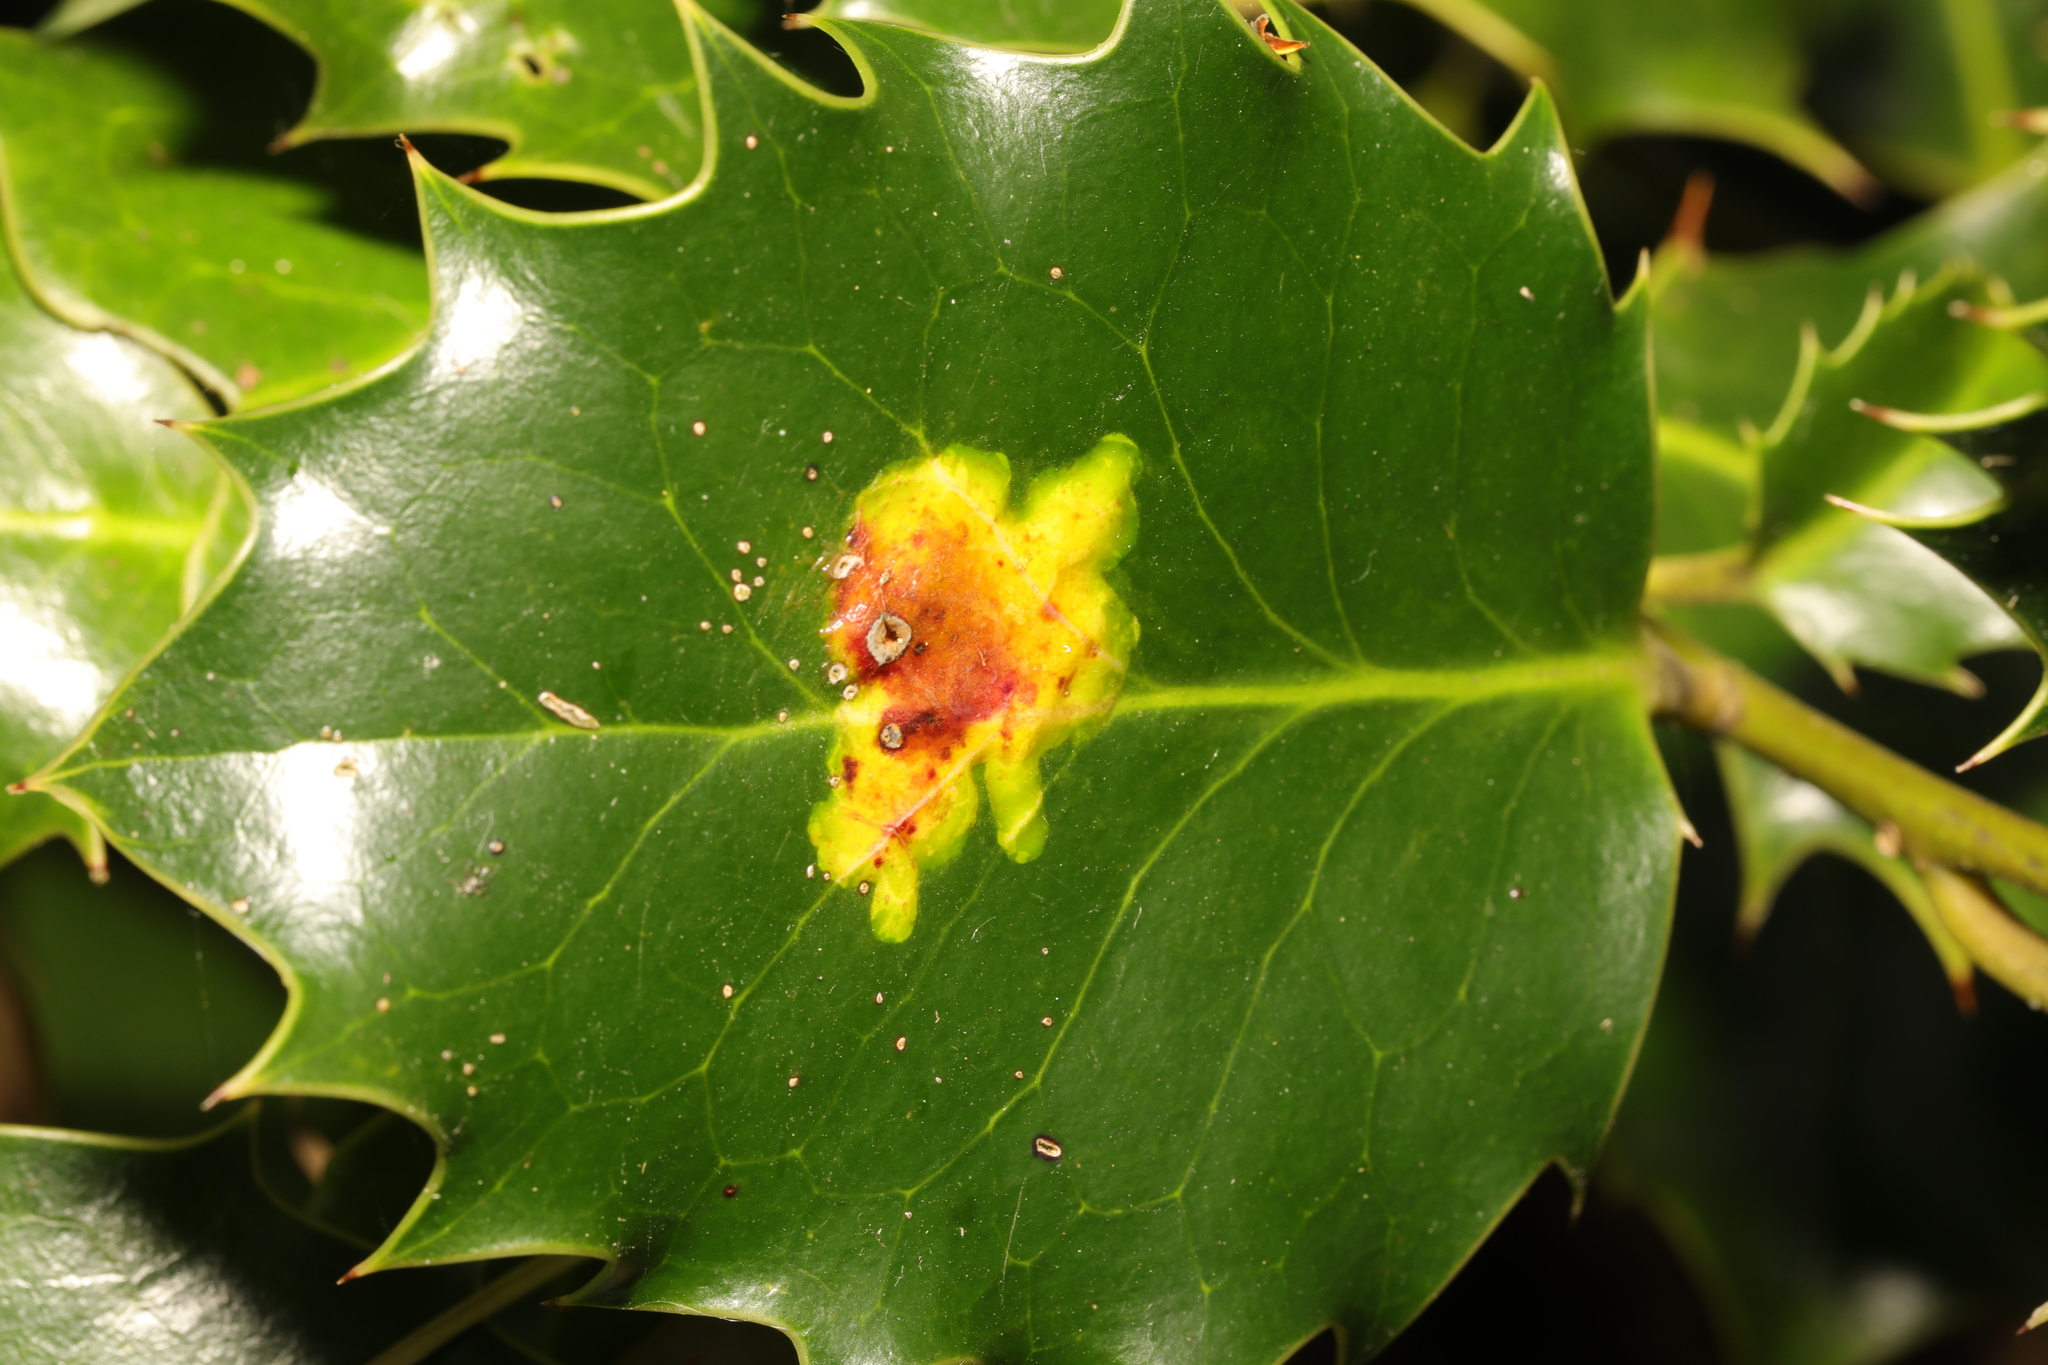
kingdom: Animalia
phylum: Arthropoda
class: Insecta
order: Diptera
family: Agromyzidae
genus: Phytomyza
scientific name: Phytomyza ilicis
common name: Holly leafminer
